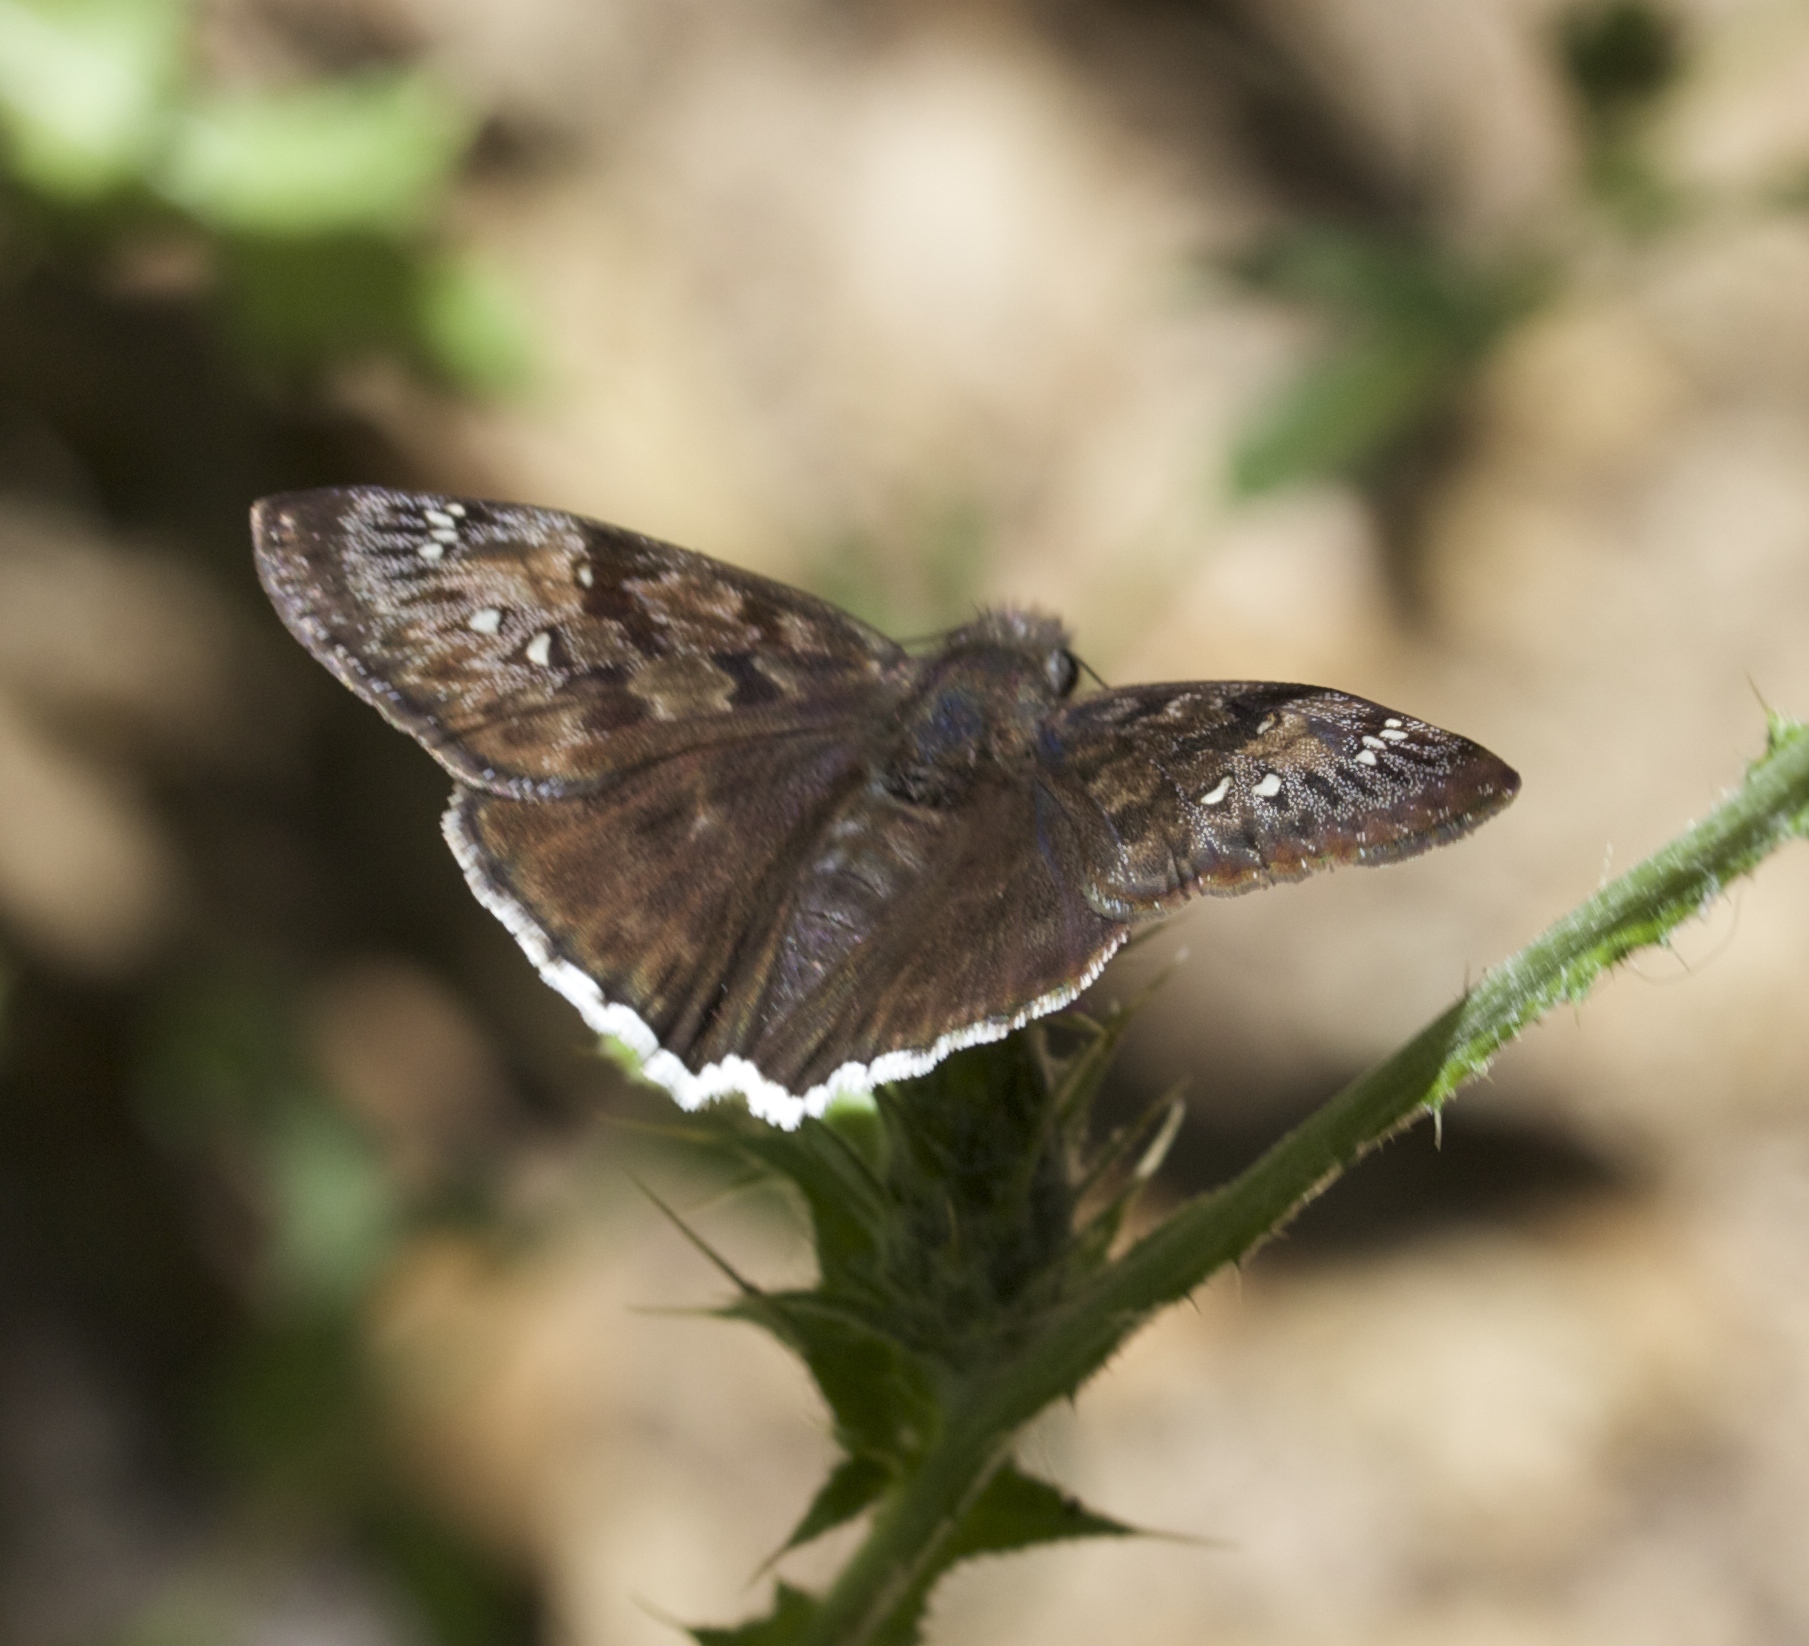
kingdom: Animalia
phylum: Arthropoda
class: Insecta
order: Lepidoptera
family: Hesperiidae
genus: Erynnis
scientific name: Erynnis tristis
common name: Mournful duskywing
